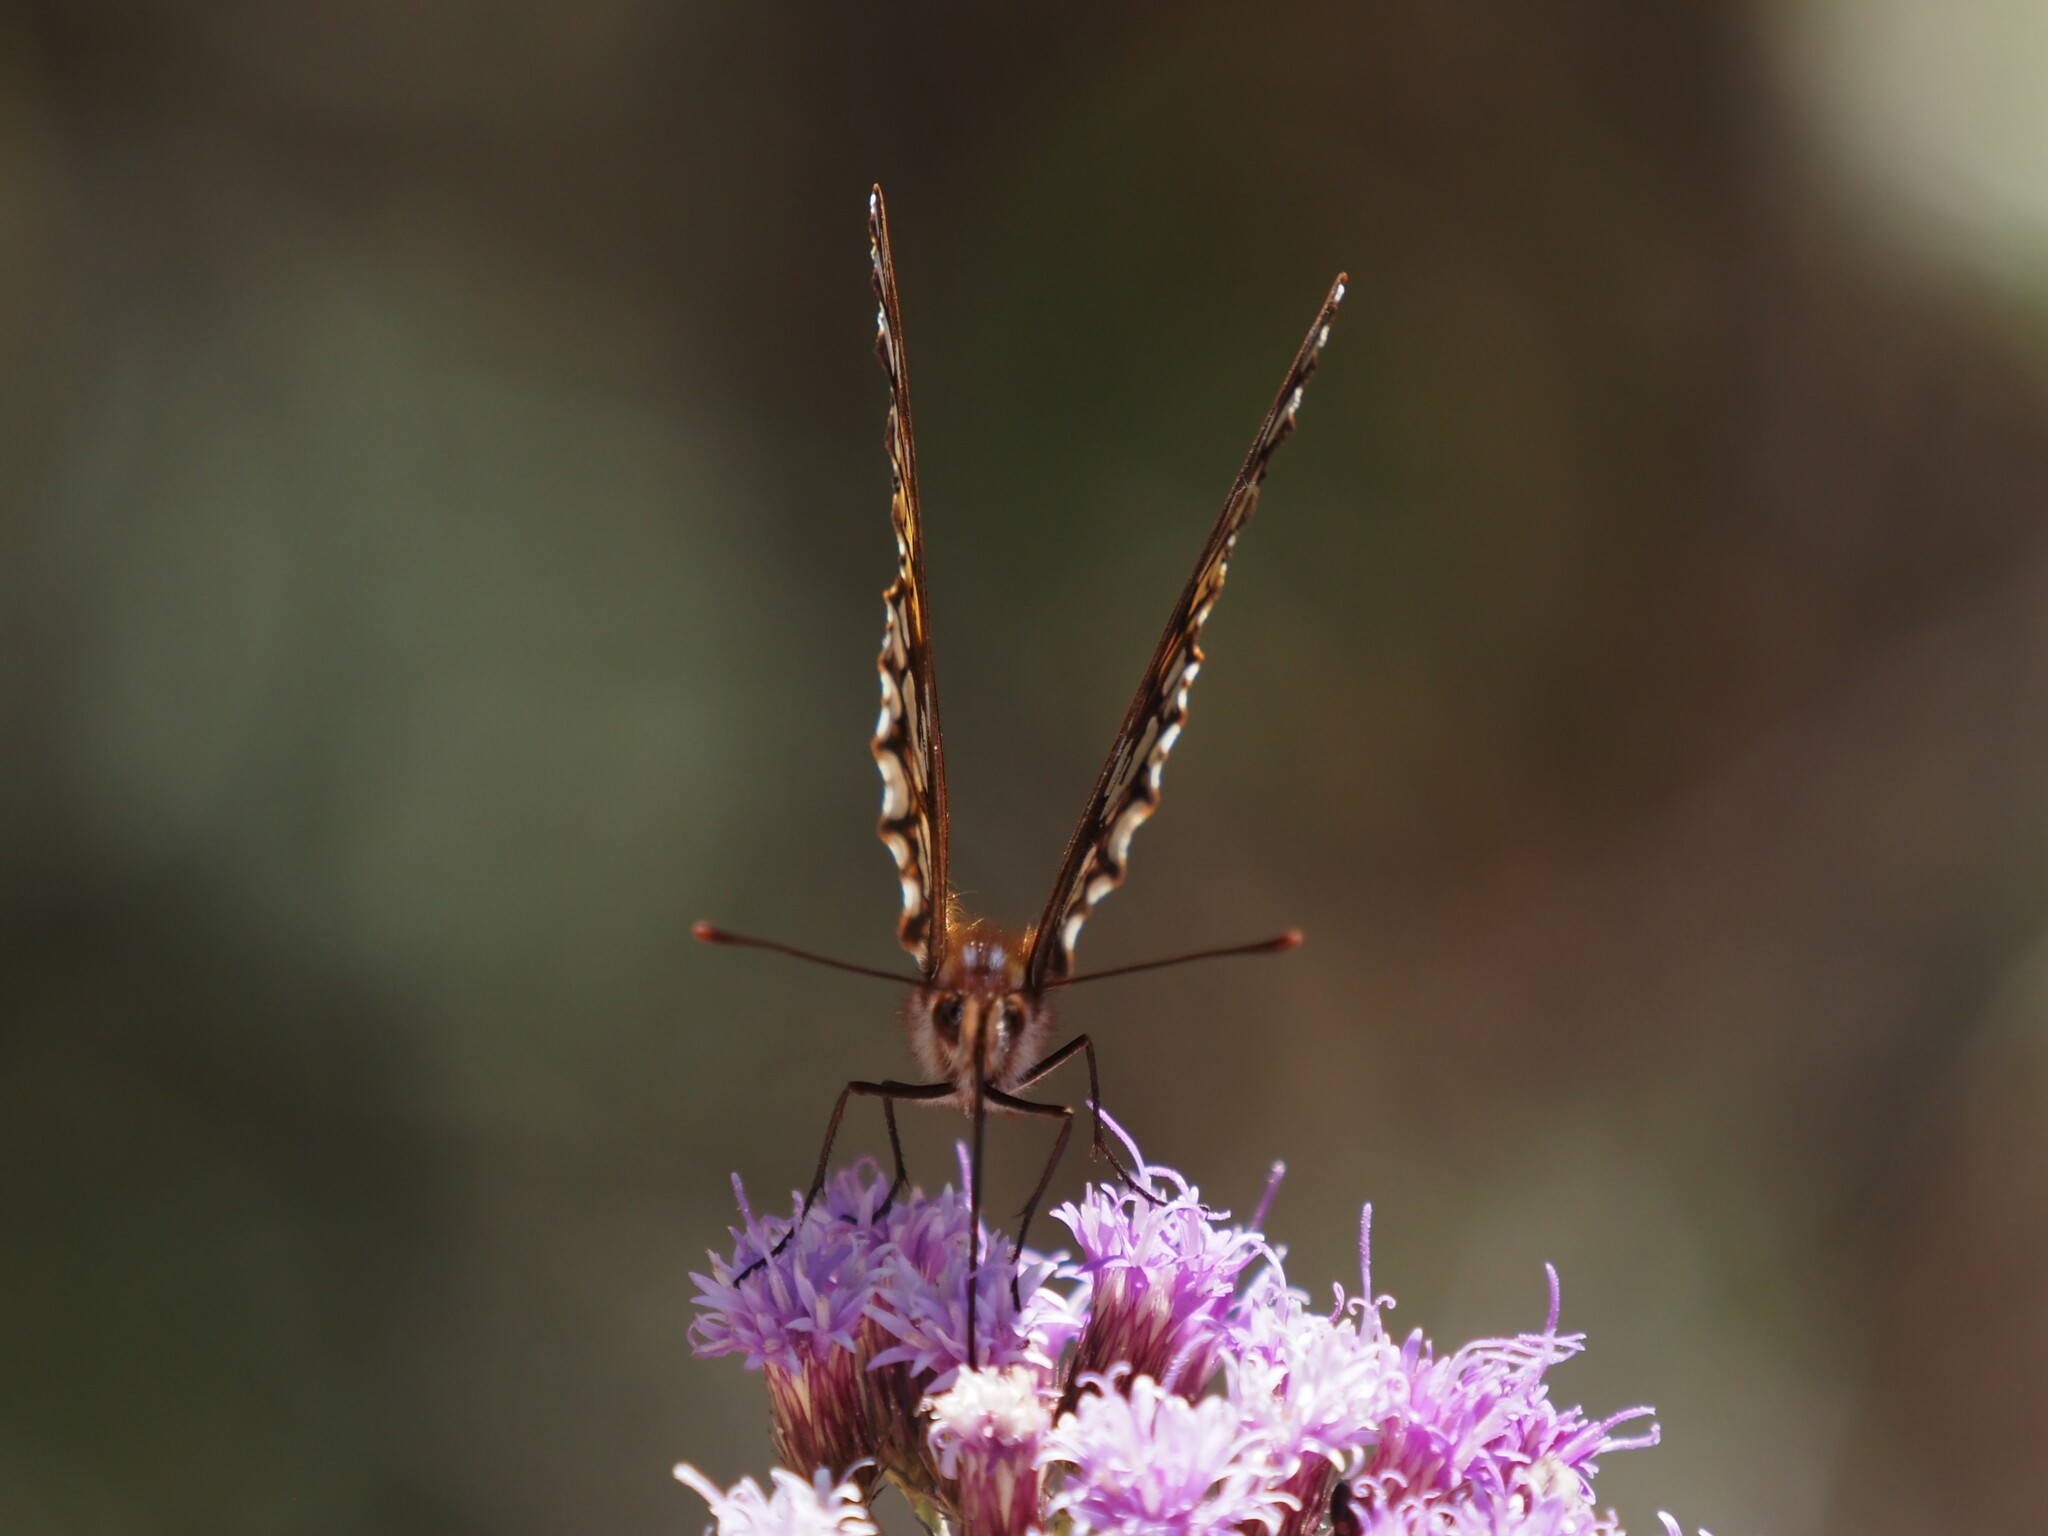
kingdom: Animalia
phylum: Arthropoda
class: Insecta
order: Lepidoptera
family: Nymphalidae
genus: Dione
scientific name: Dione moneta
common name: Mexican silverspot
